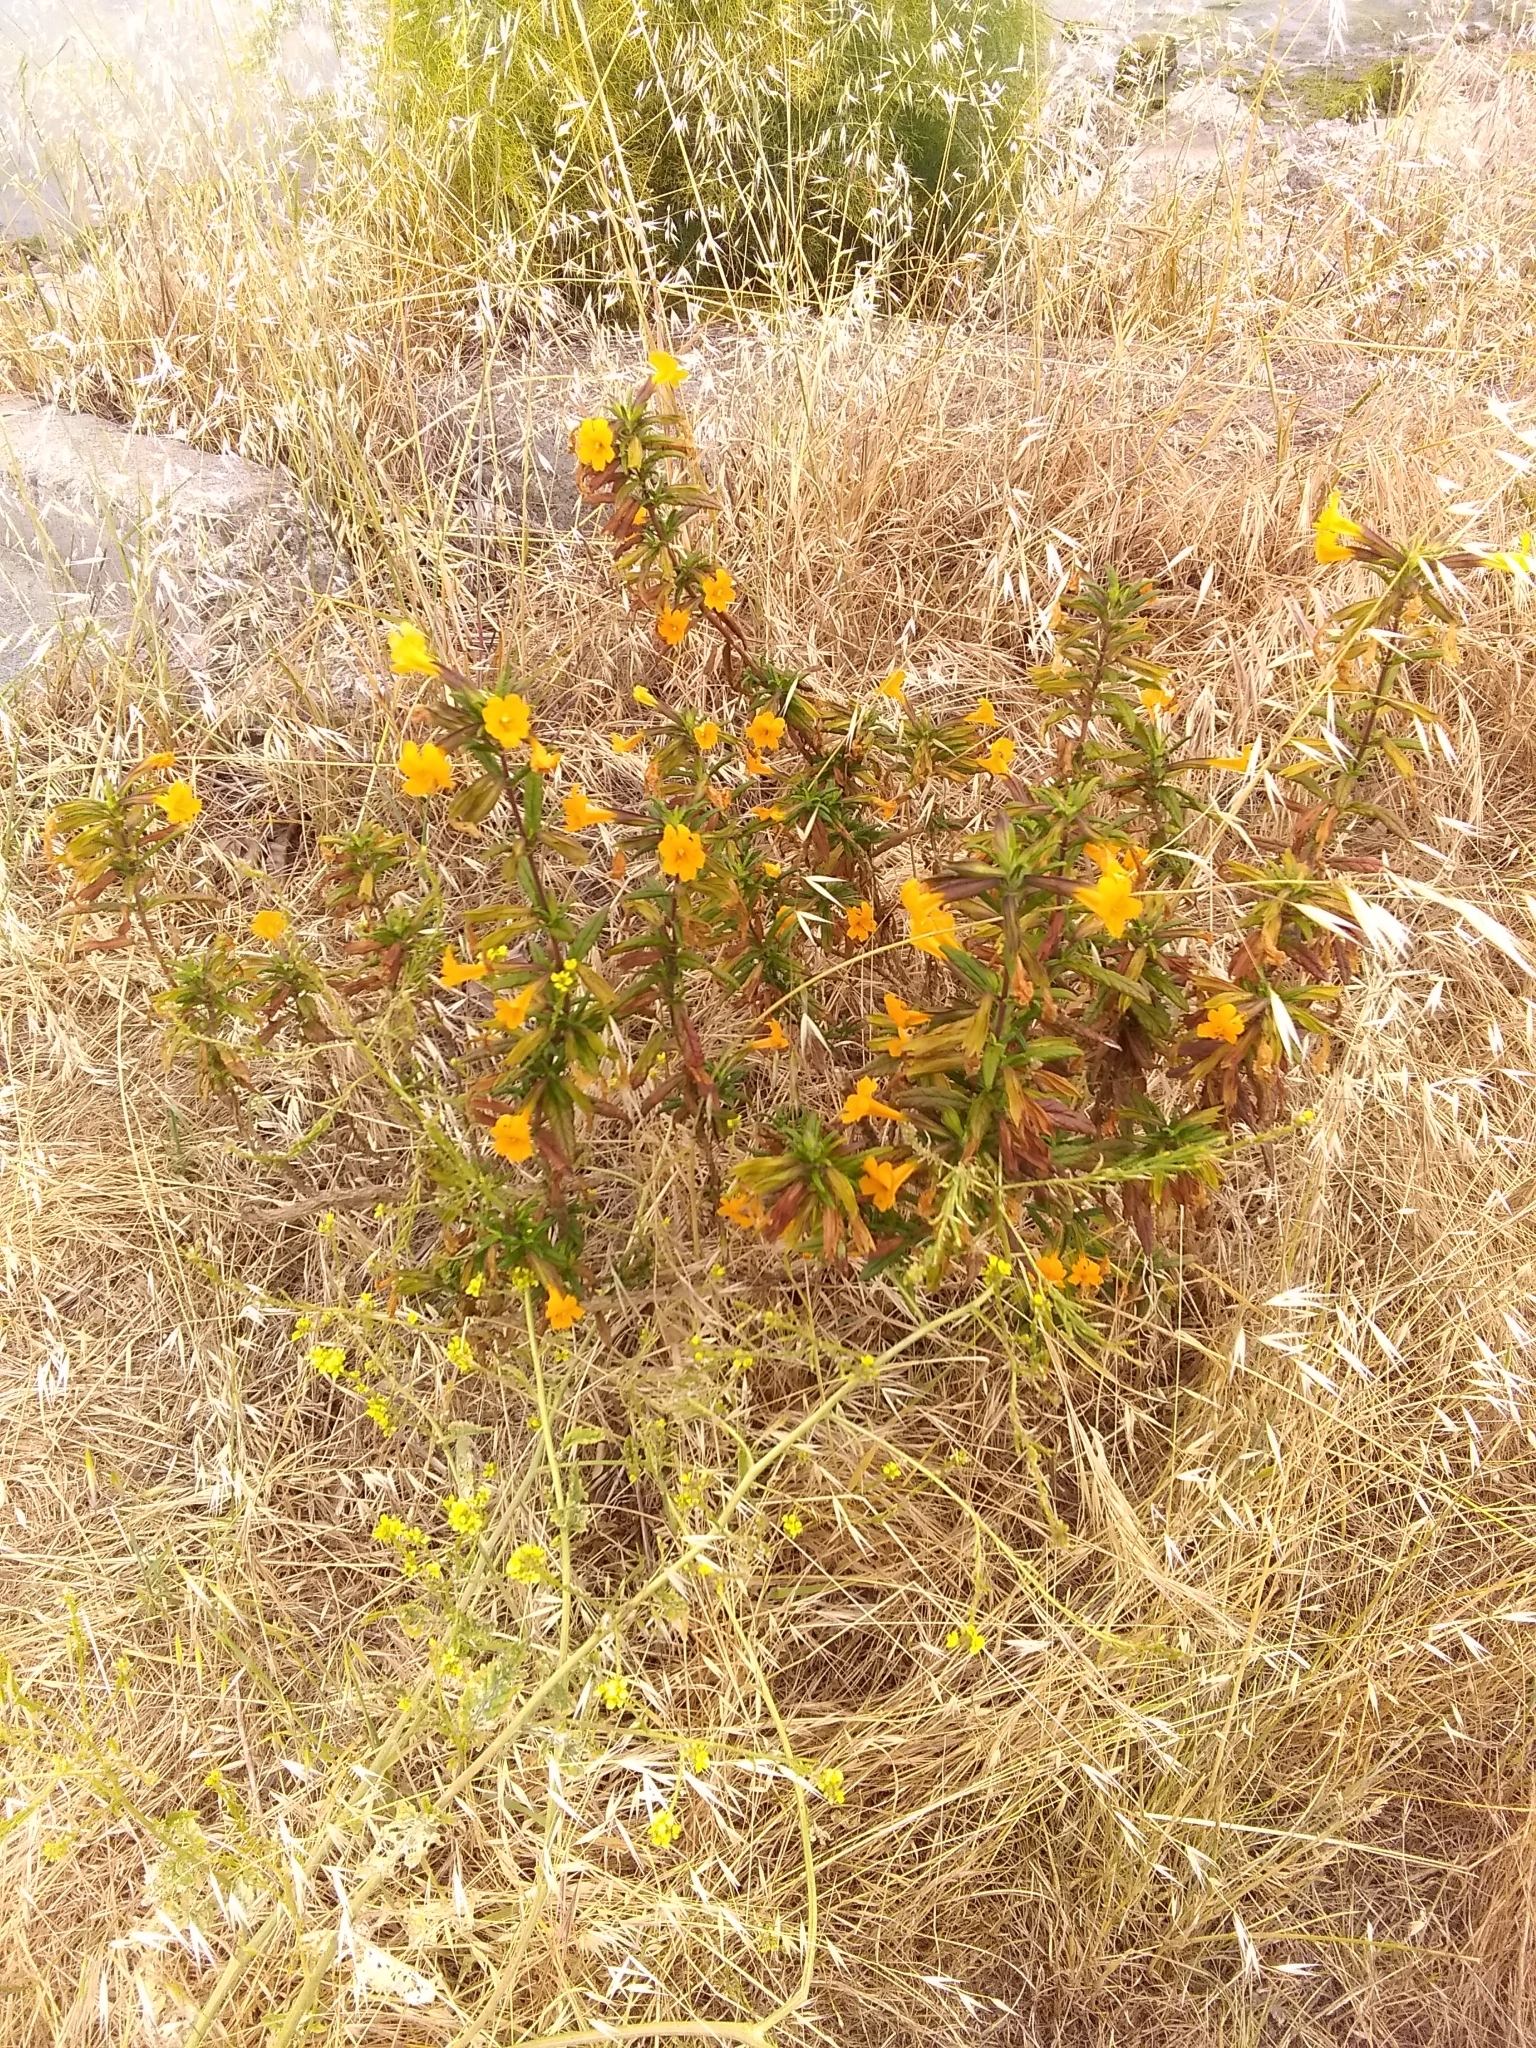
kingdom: Plantae
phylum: Tracheophyta
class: Magnoliopsida
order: Lamiales
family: Phrymaceae
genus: Diplacus
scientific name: Diplacus aurantiacus
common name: Bush monkey-flower
